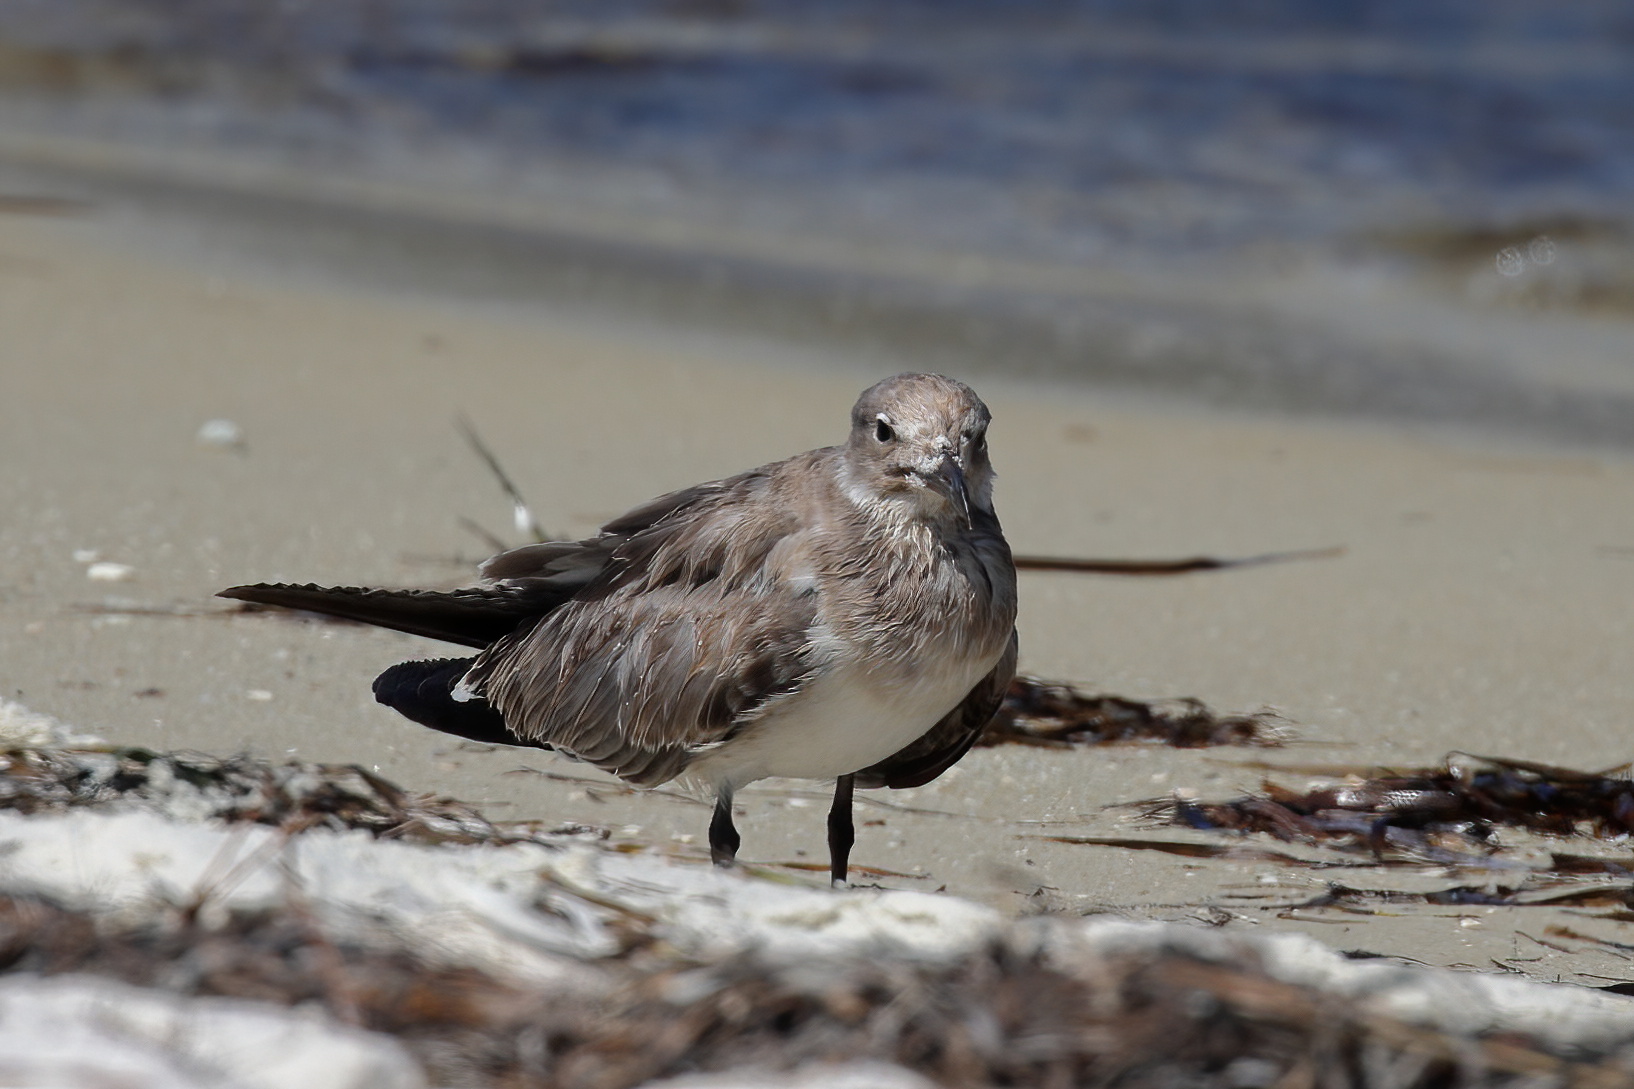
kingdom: Animalia
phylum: Chordata
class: Aves
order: Charadriiformes
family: Laridae
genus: Leucophaeus
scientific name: Leucophaeus atricilla
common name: Laughing gull
